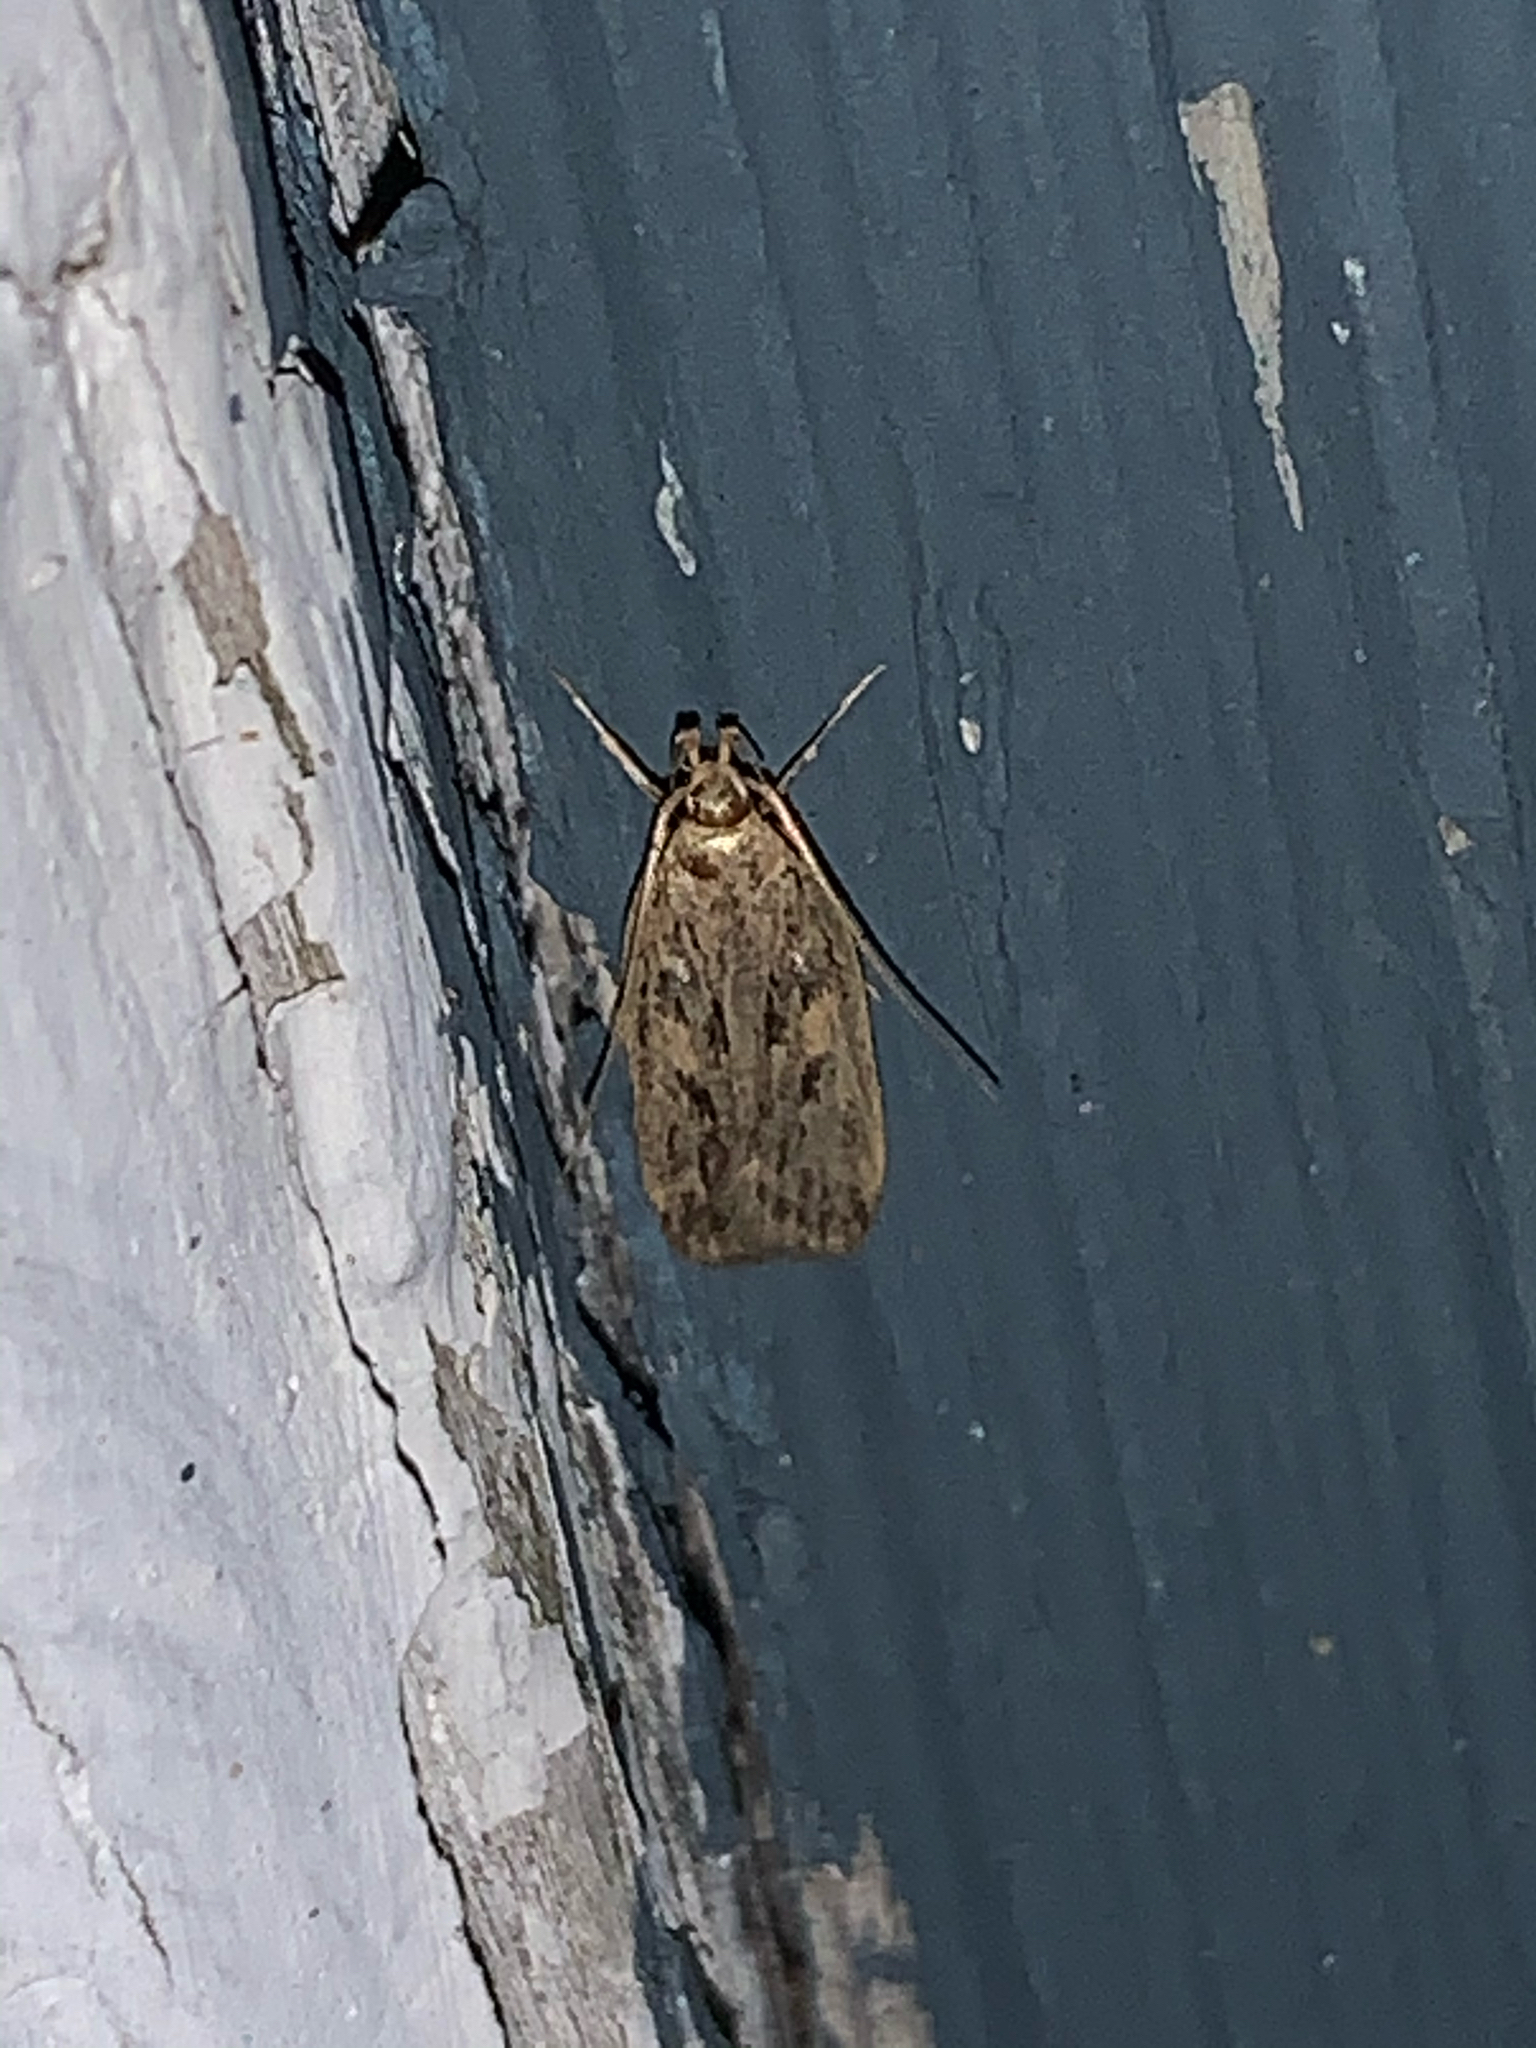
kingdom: Animalia
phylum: Arthropoda
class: Insecta
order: Lepidoptera
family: Lecithoceridae
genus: Martyringa
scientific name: Martyringa latipennis
